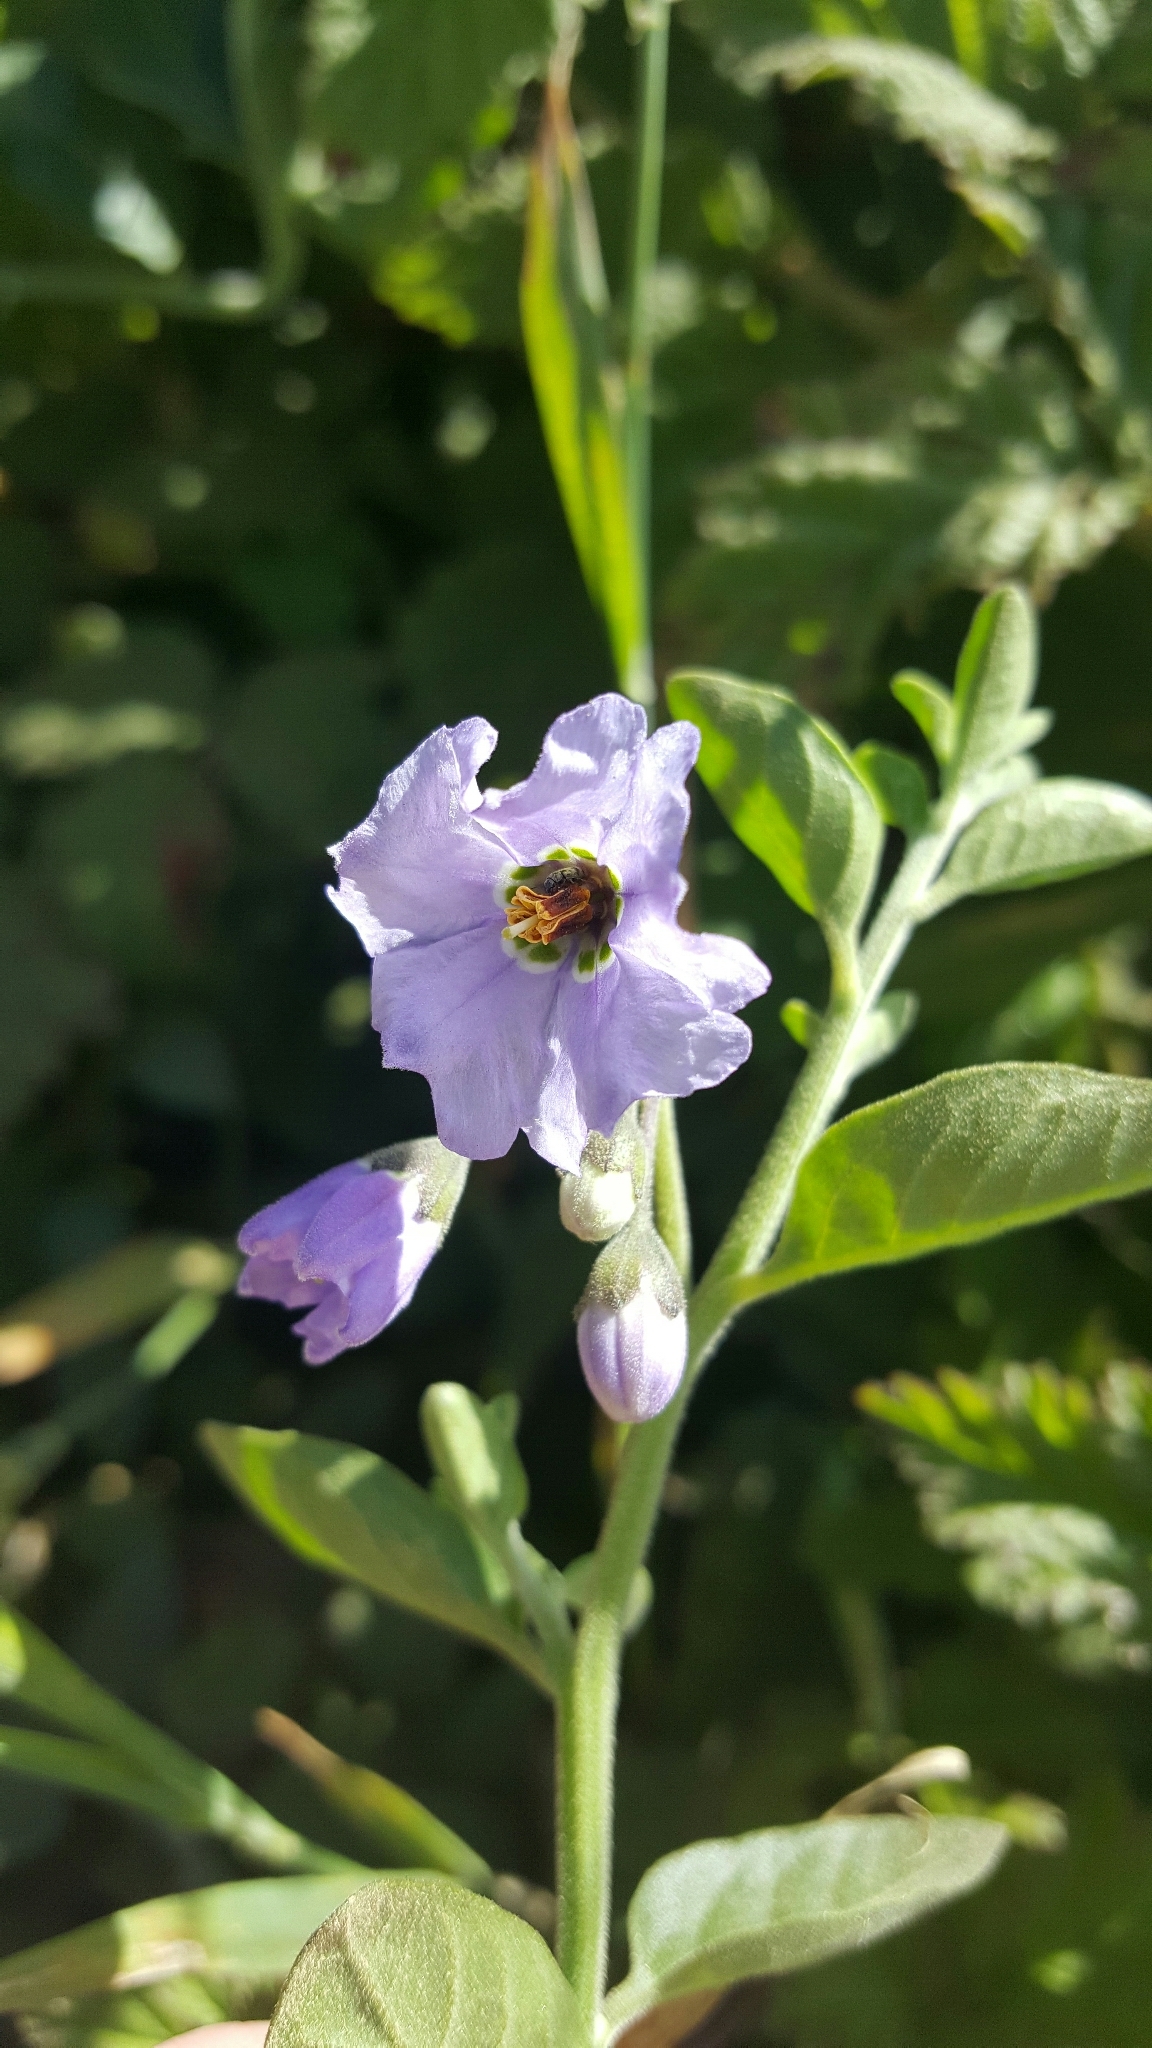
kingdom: Plantae
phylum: Tracheophyta
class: Magnoliopsida
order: Solanales
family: Solanaceae
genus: Solanum
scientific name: Solanum umbelliferum
